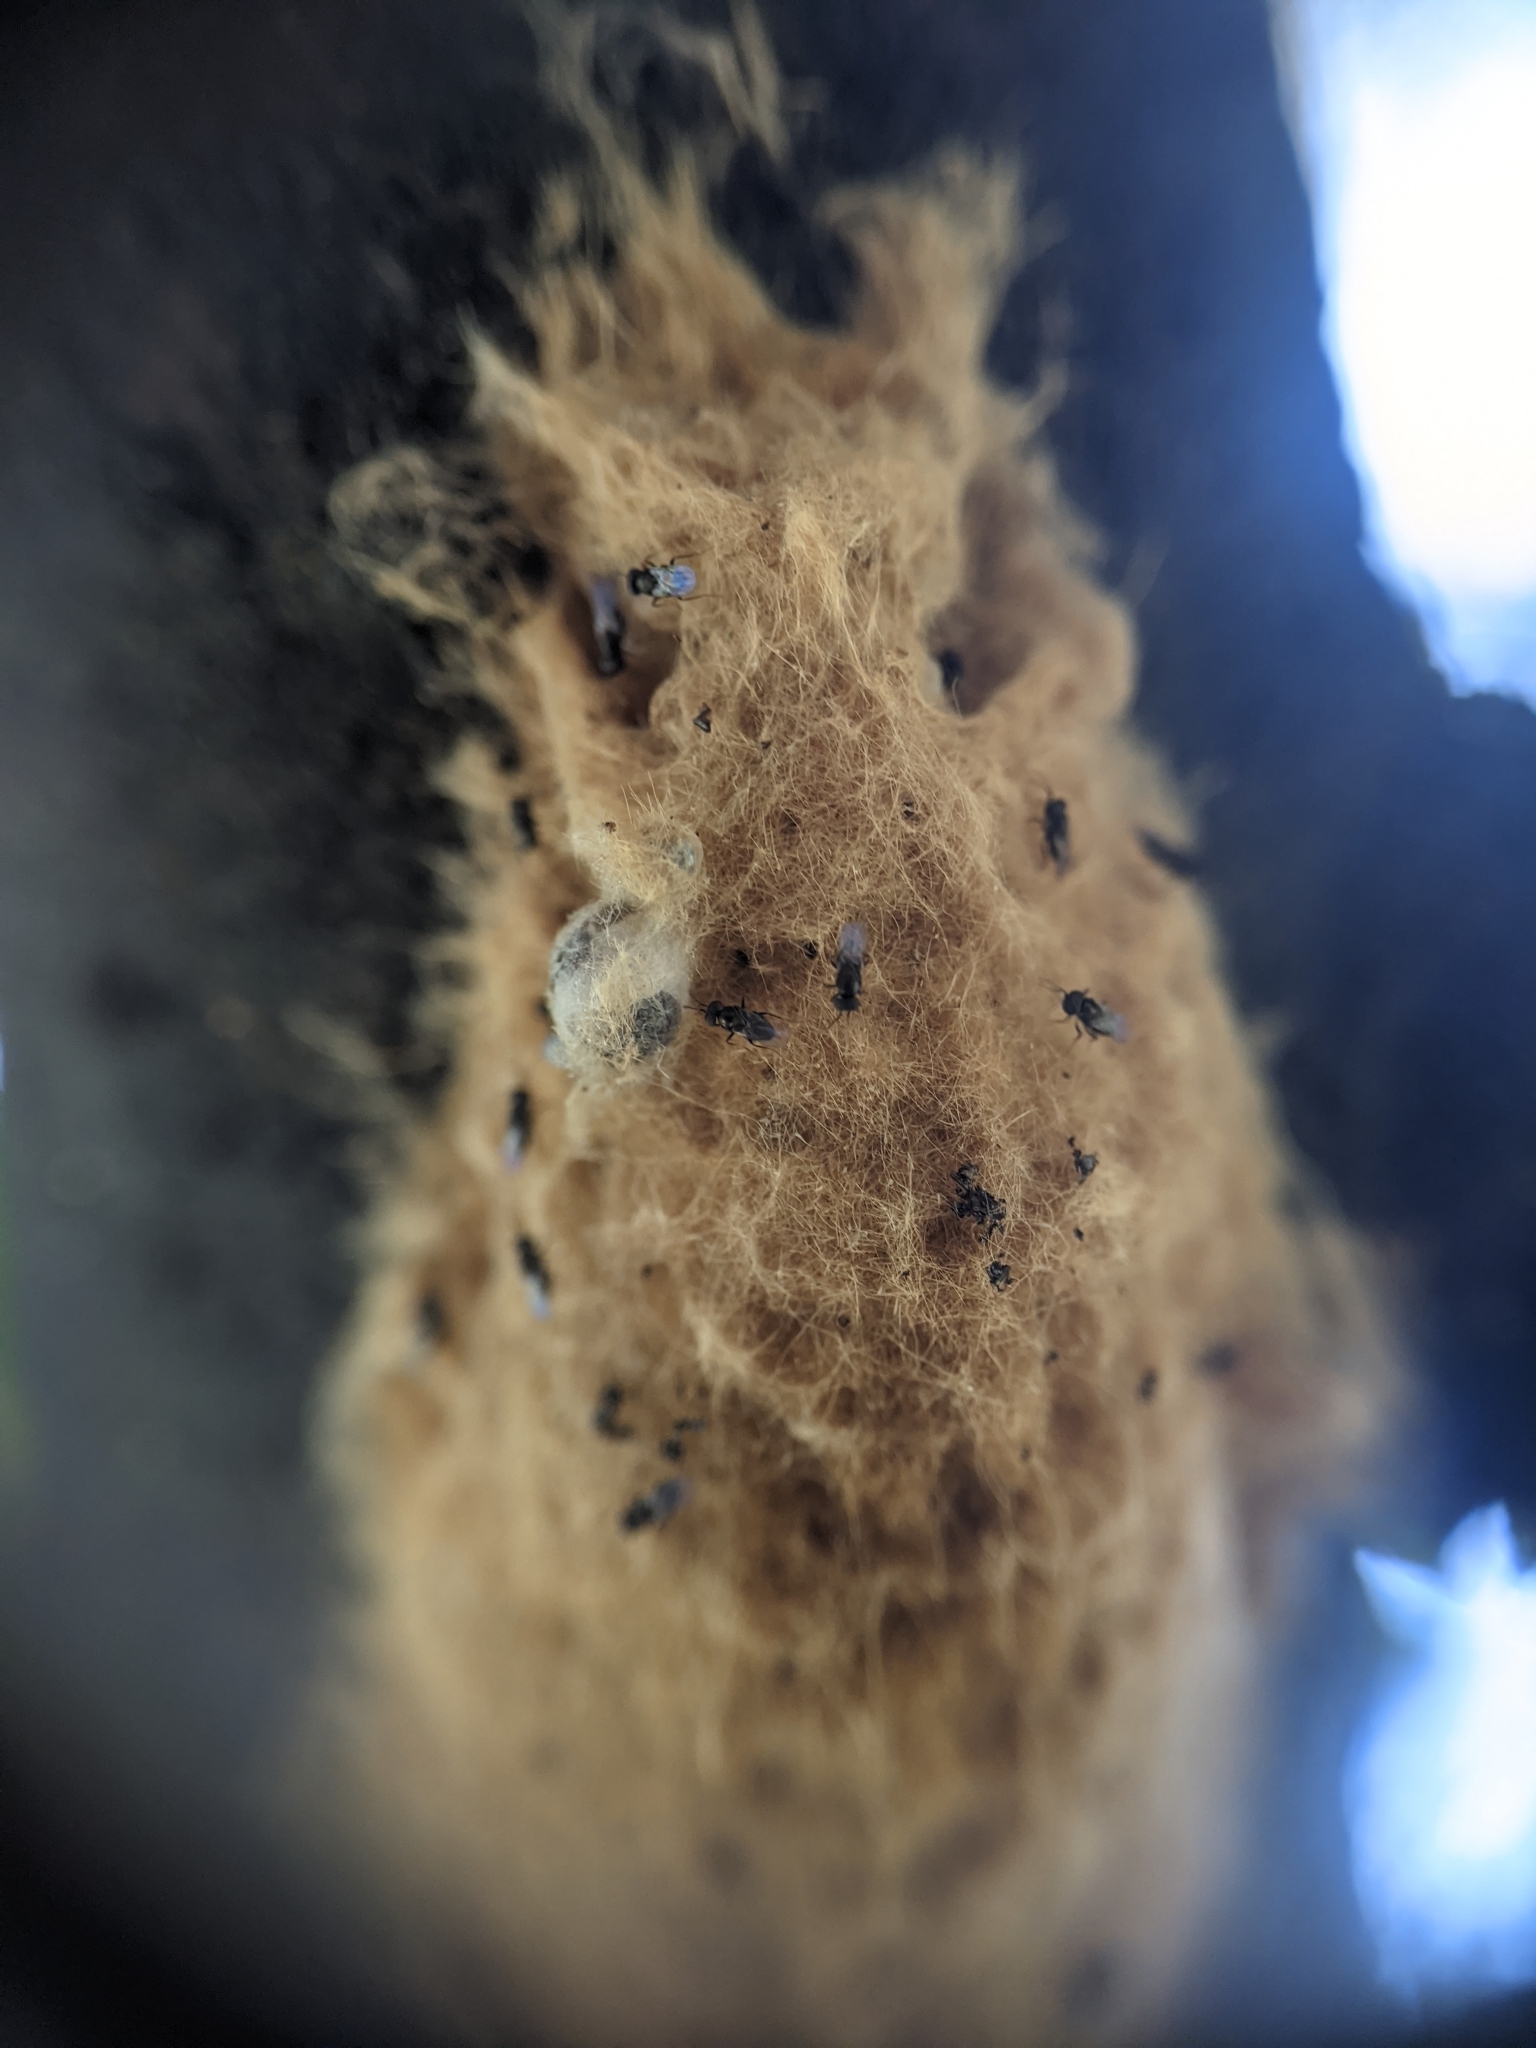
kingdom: Animalia
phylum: Arthropoda
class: Insecta
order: Hymenoptera
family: Encyrtidae
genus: Ooencyrtus
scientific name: Ooencyrtus kuvanae
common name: Wasp
